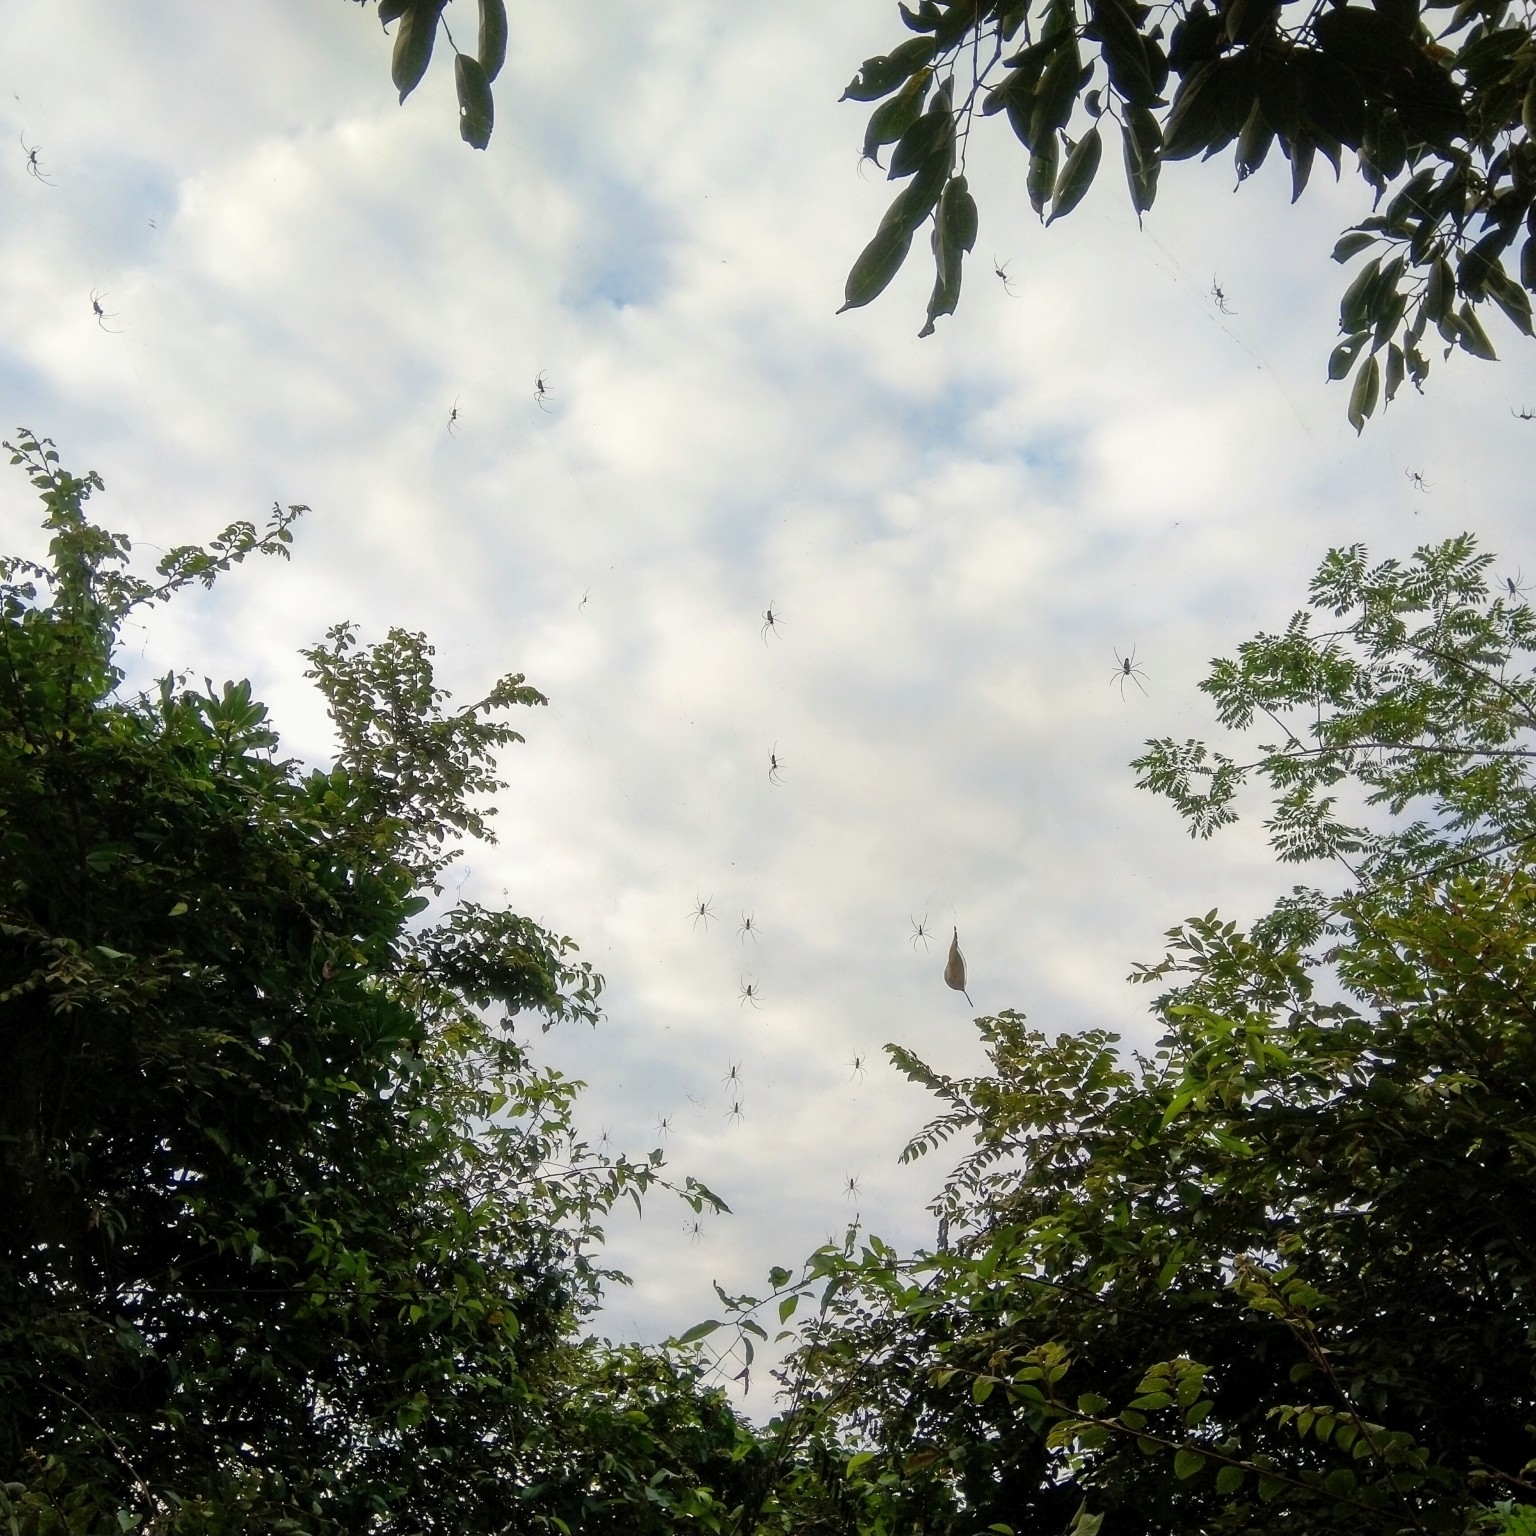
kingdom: Animalia
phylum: Arthropoda
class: Arachnida
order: Araneae
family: Araneidae
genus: Nephila
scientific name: Nephila pilipes
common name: Giant golden orb weaver
